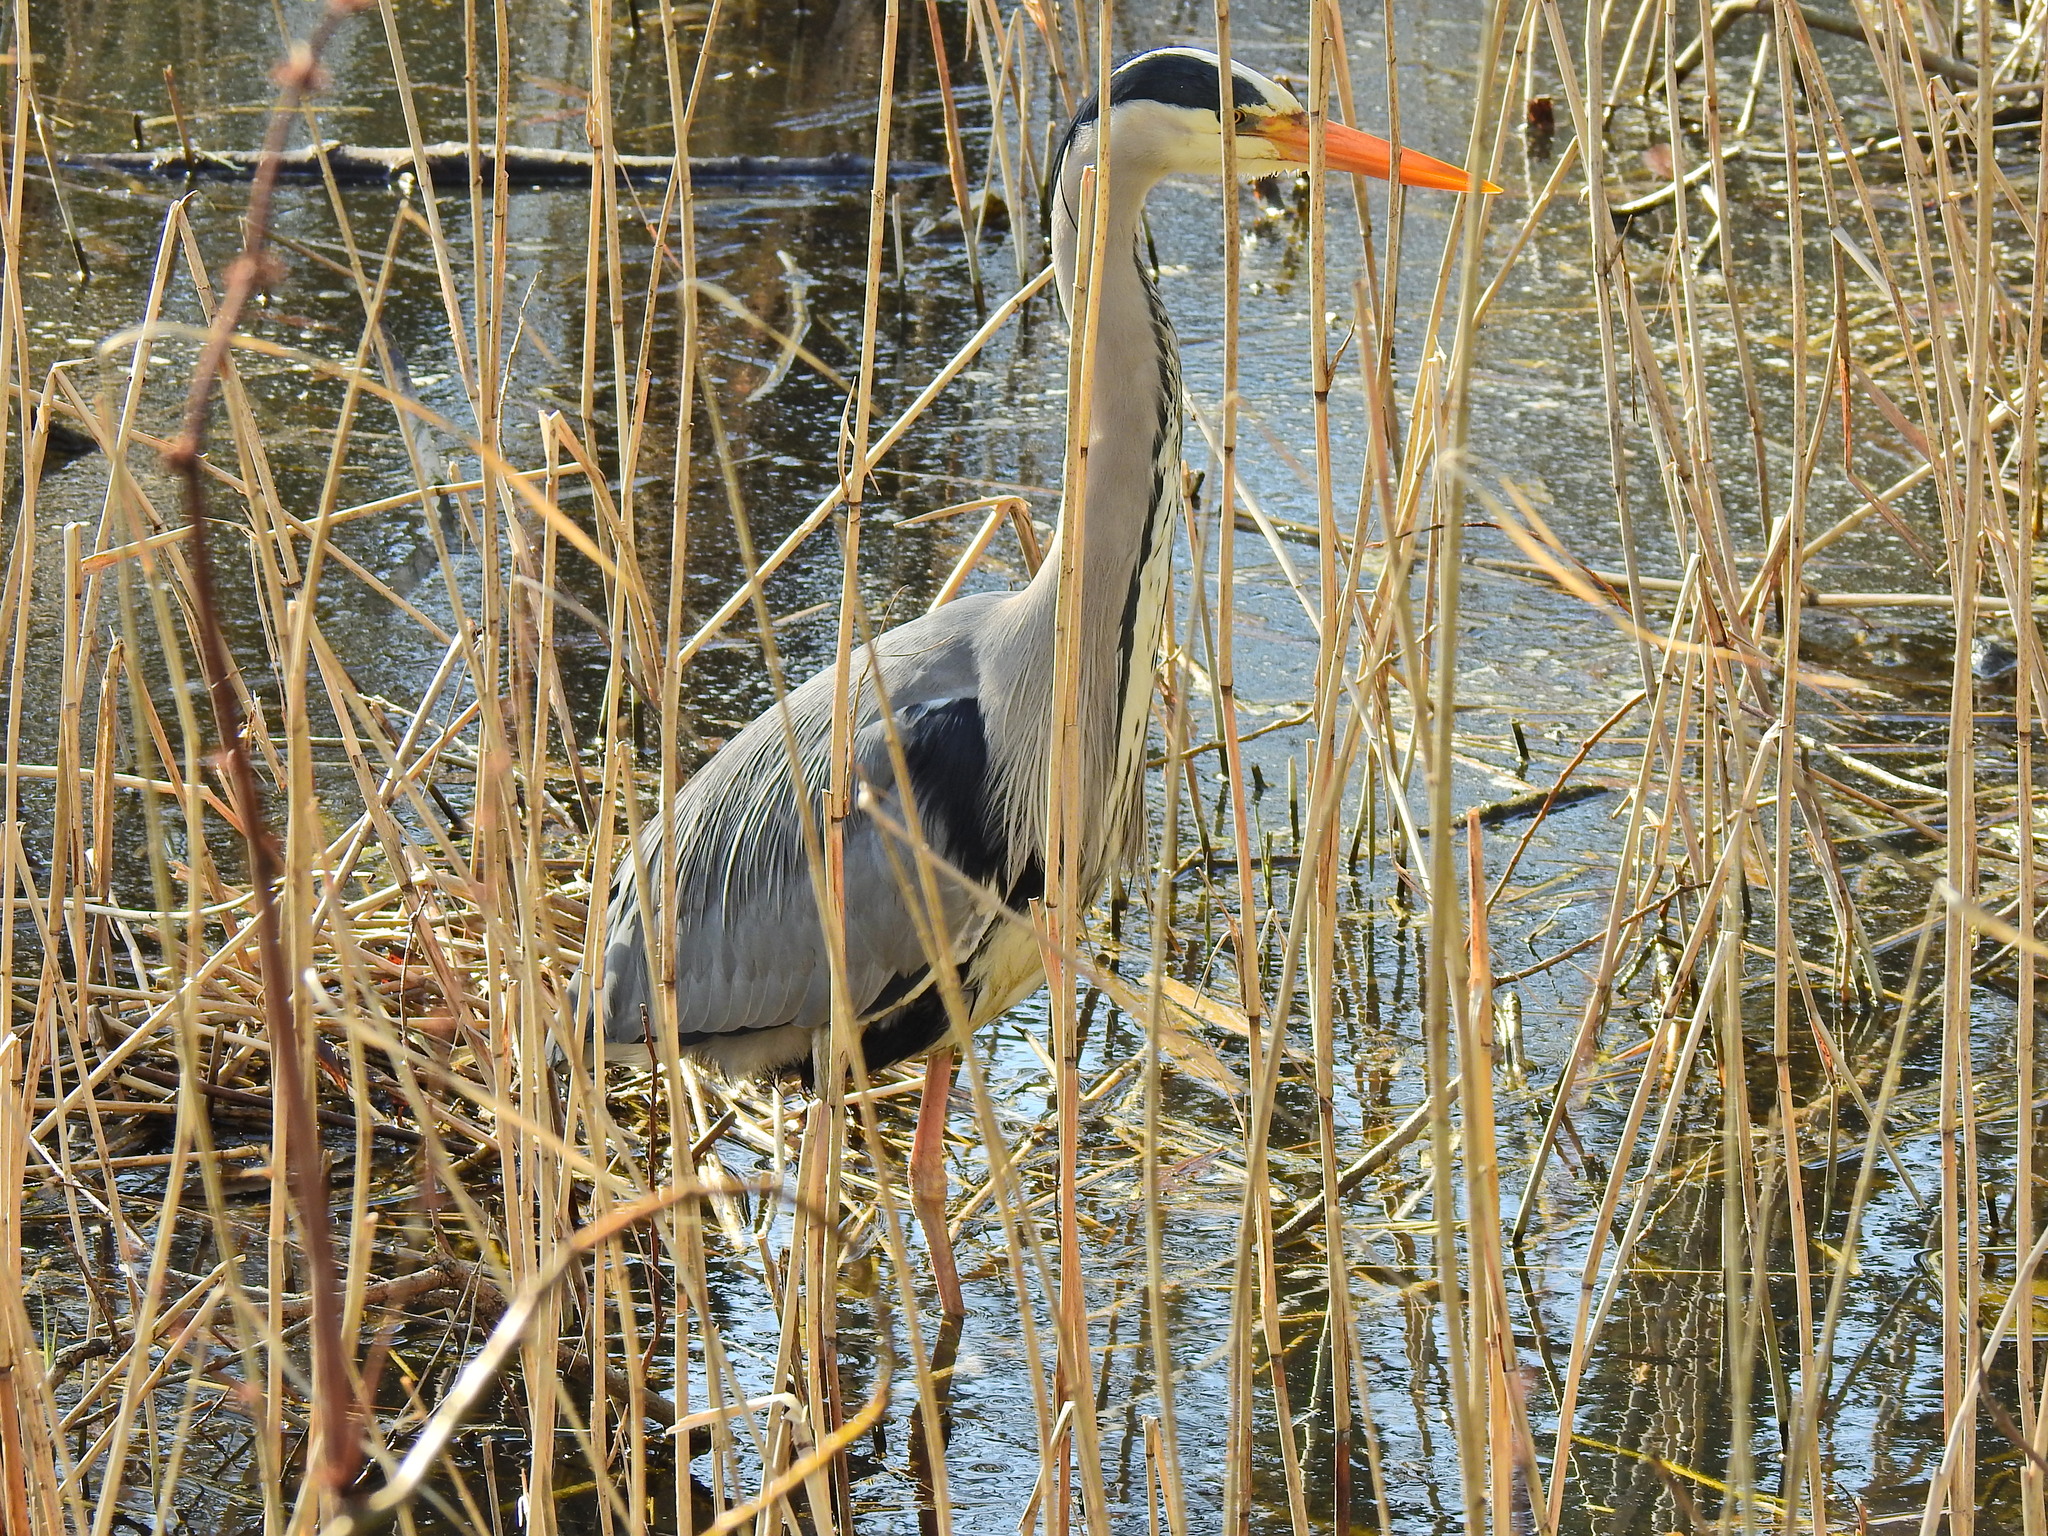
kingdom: Animalia
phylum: Chordata
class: Aves
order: Pelecaniformes
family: Ardeidae
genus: Ardea
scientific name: Ardea cinerea
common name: Grey heron
